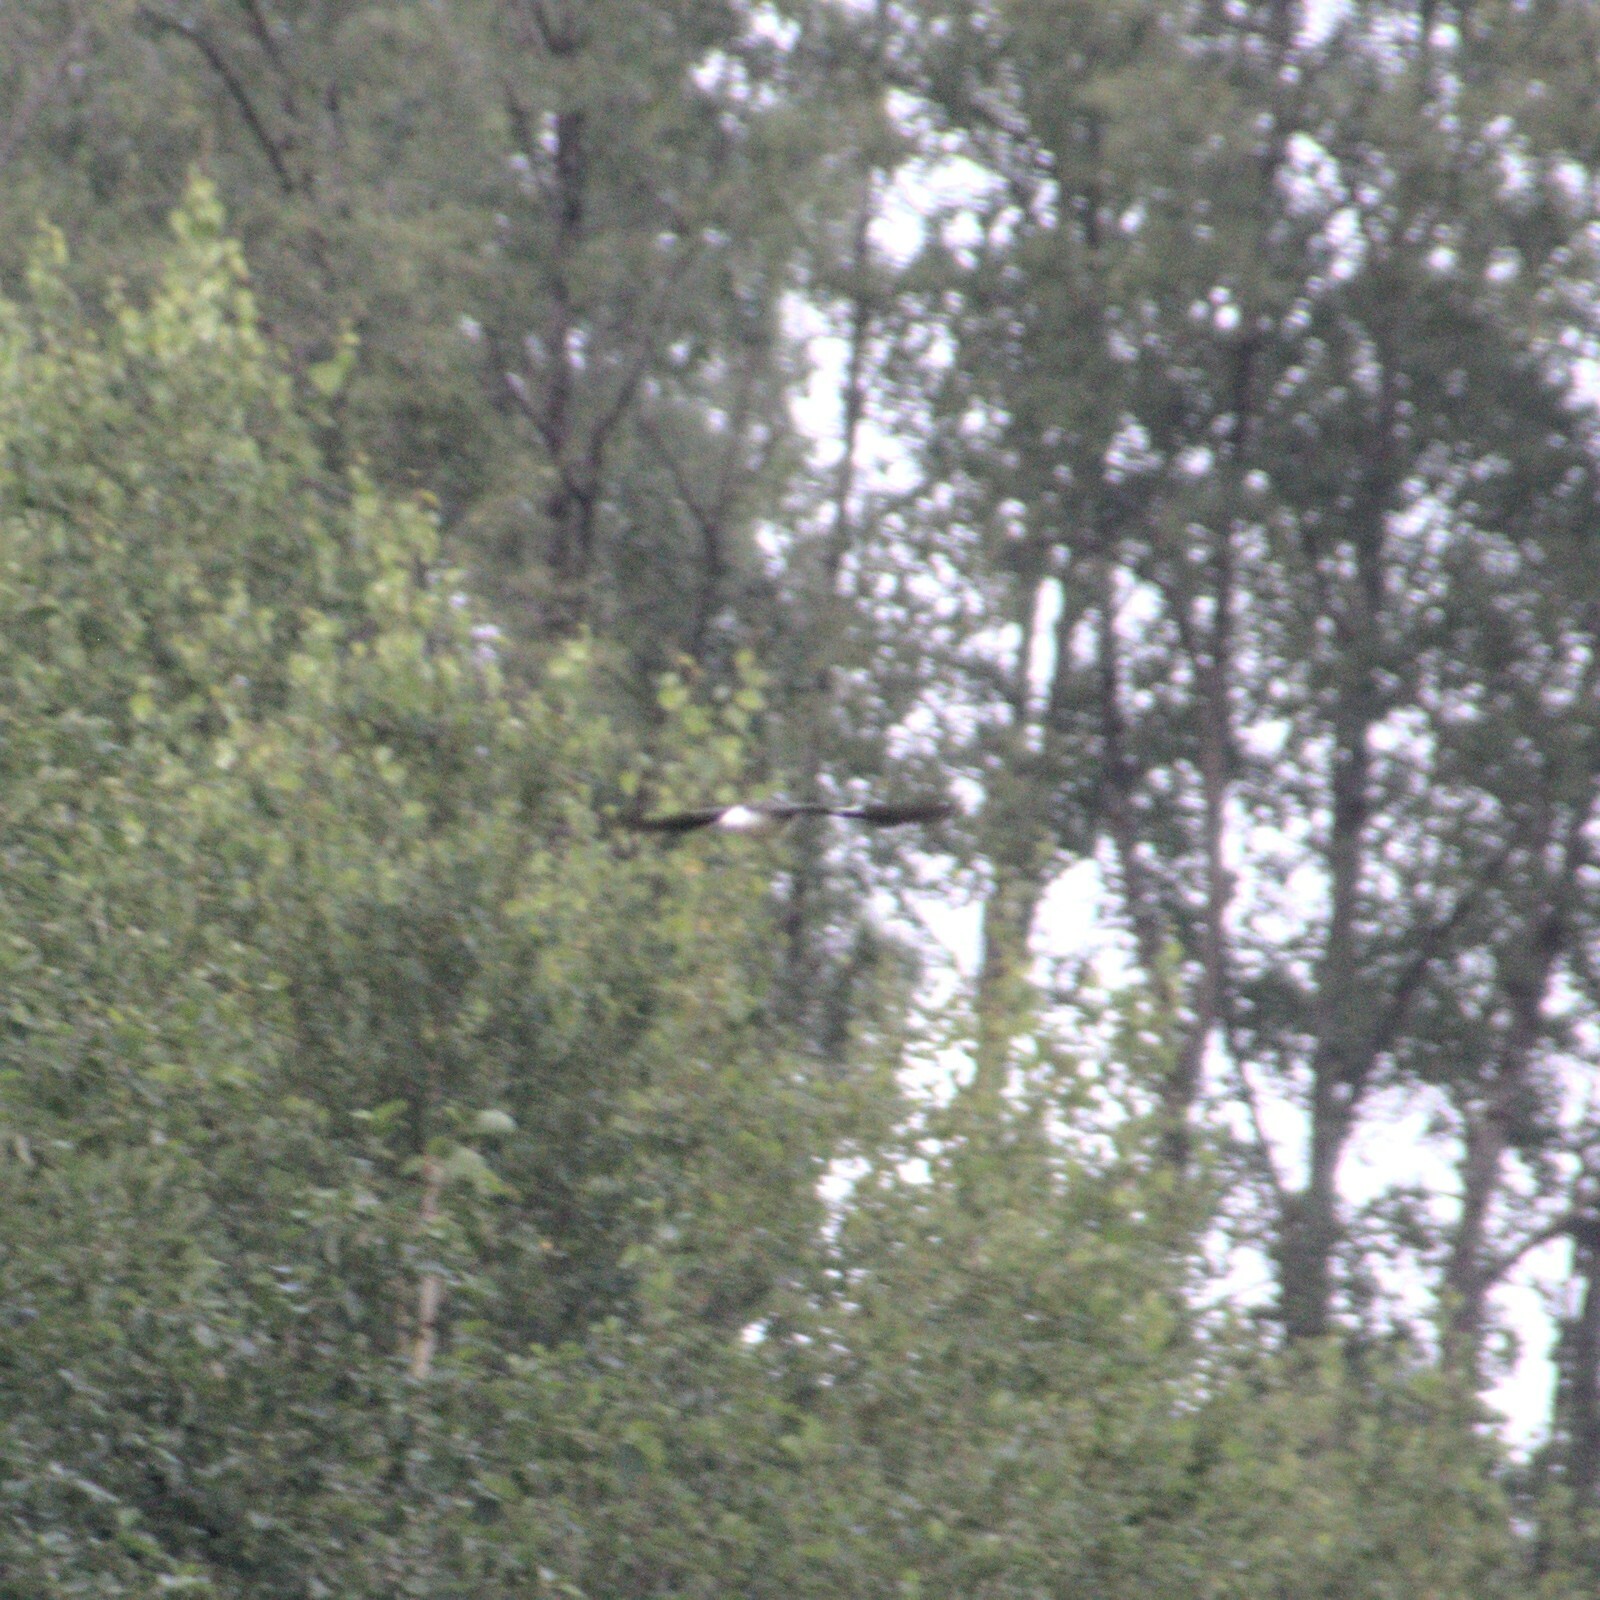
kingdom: Animalia
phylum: Chordata
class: Aves
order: Charadriiformes
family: Scolopacidae
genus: Tringa
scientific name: Tringa ochropus
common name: Green sandpiper
